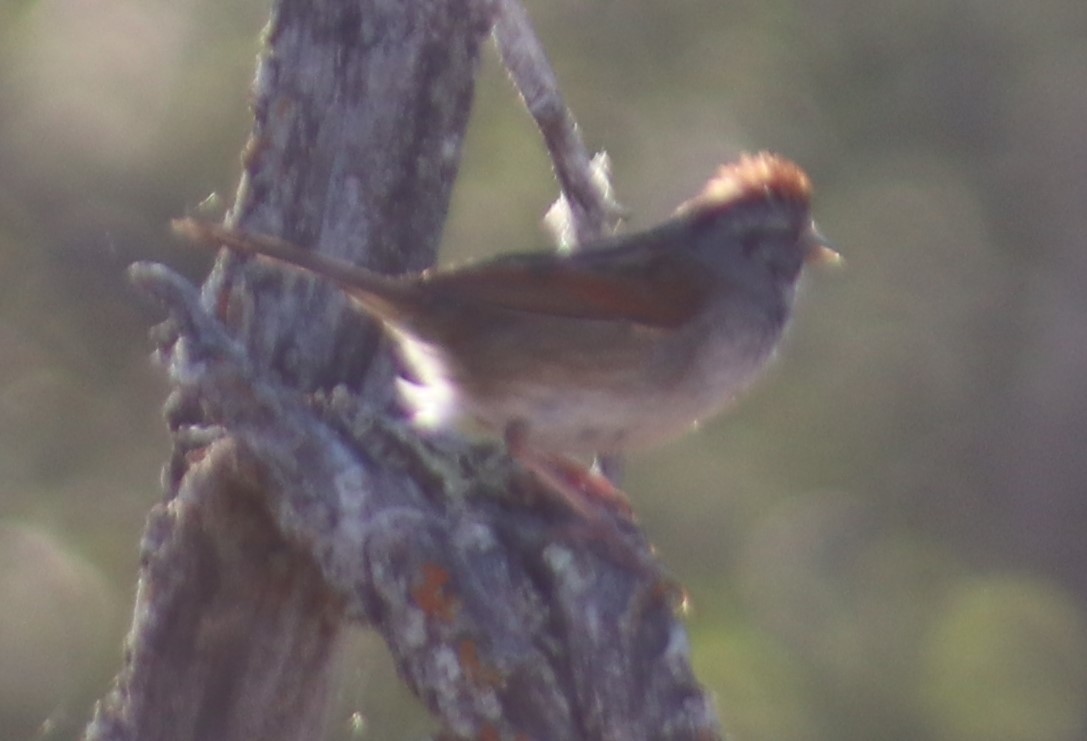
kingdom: Animalia
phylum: Chordata
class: Aves
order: Passeriformes
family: Passerellidae
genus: Melospiza
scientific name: Melospiza georgiana
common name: Swamp sparrow
